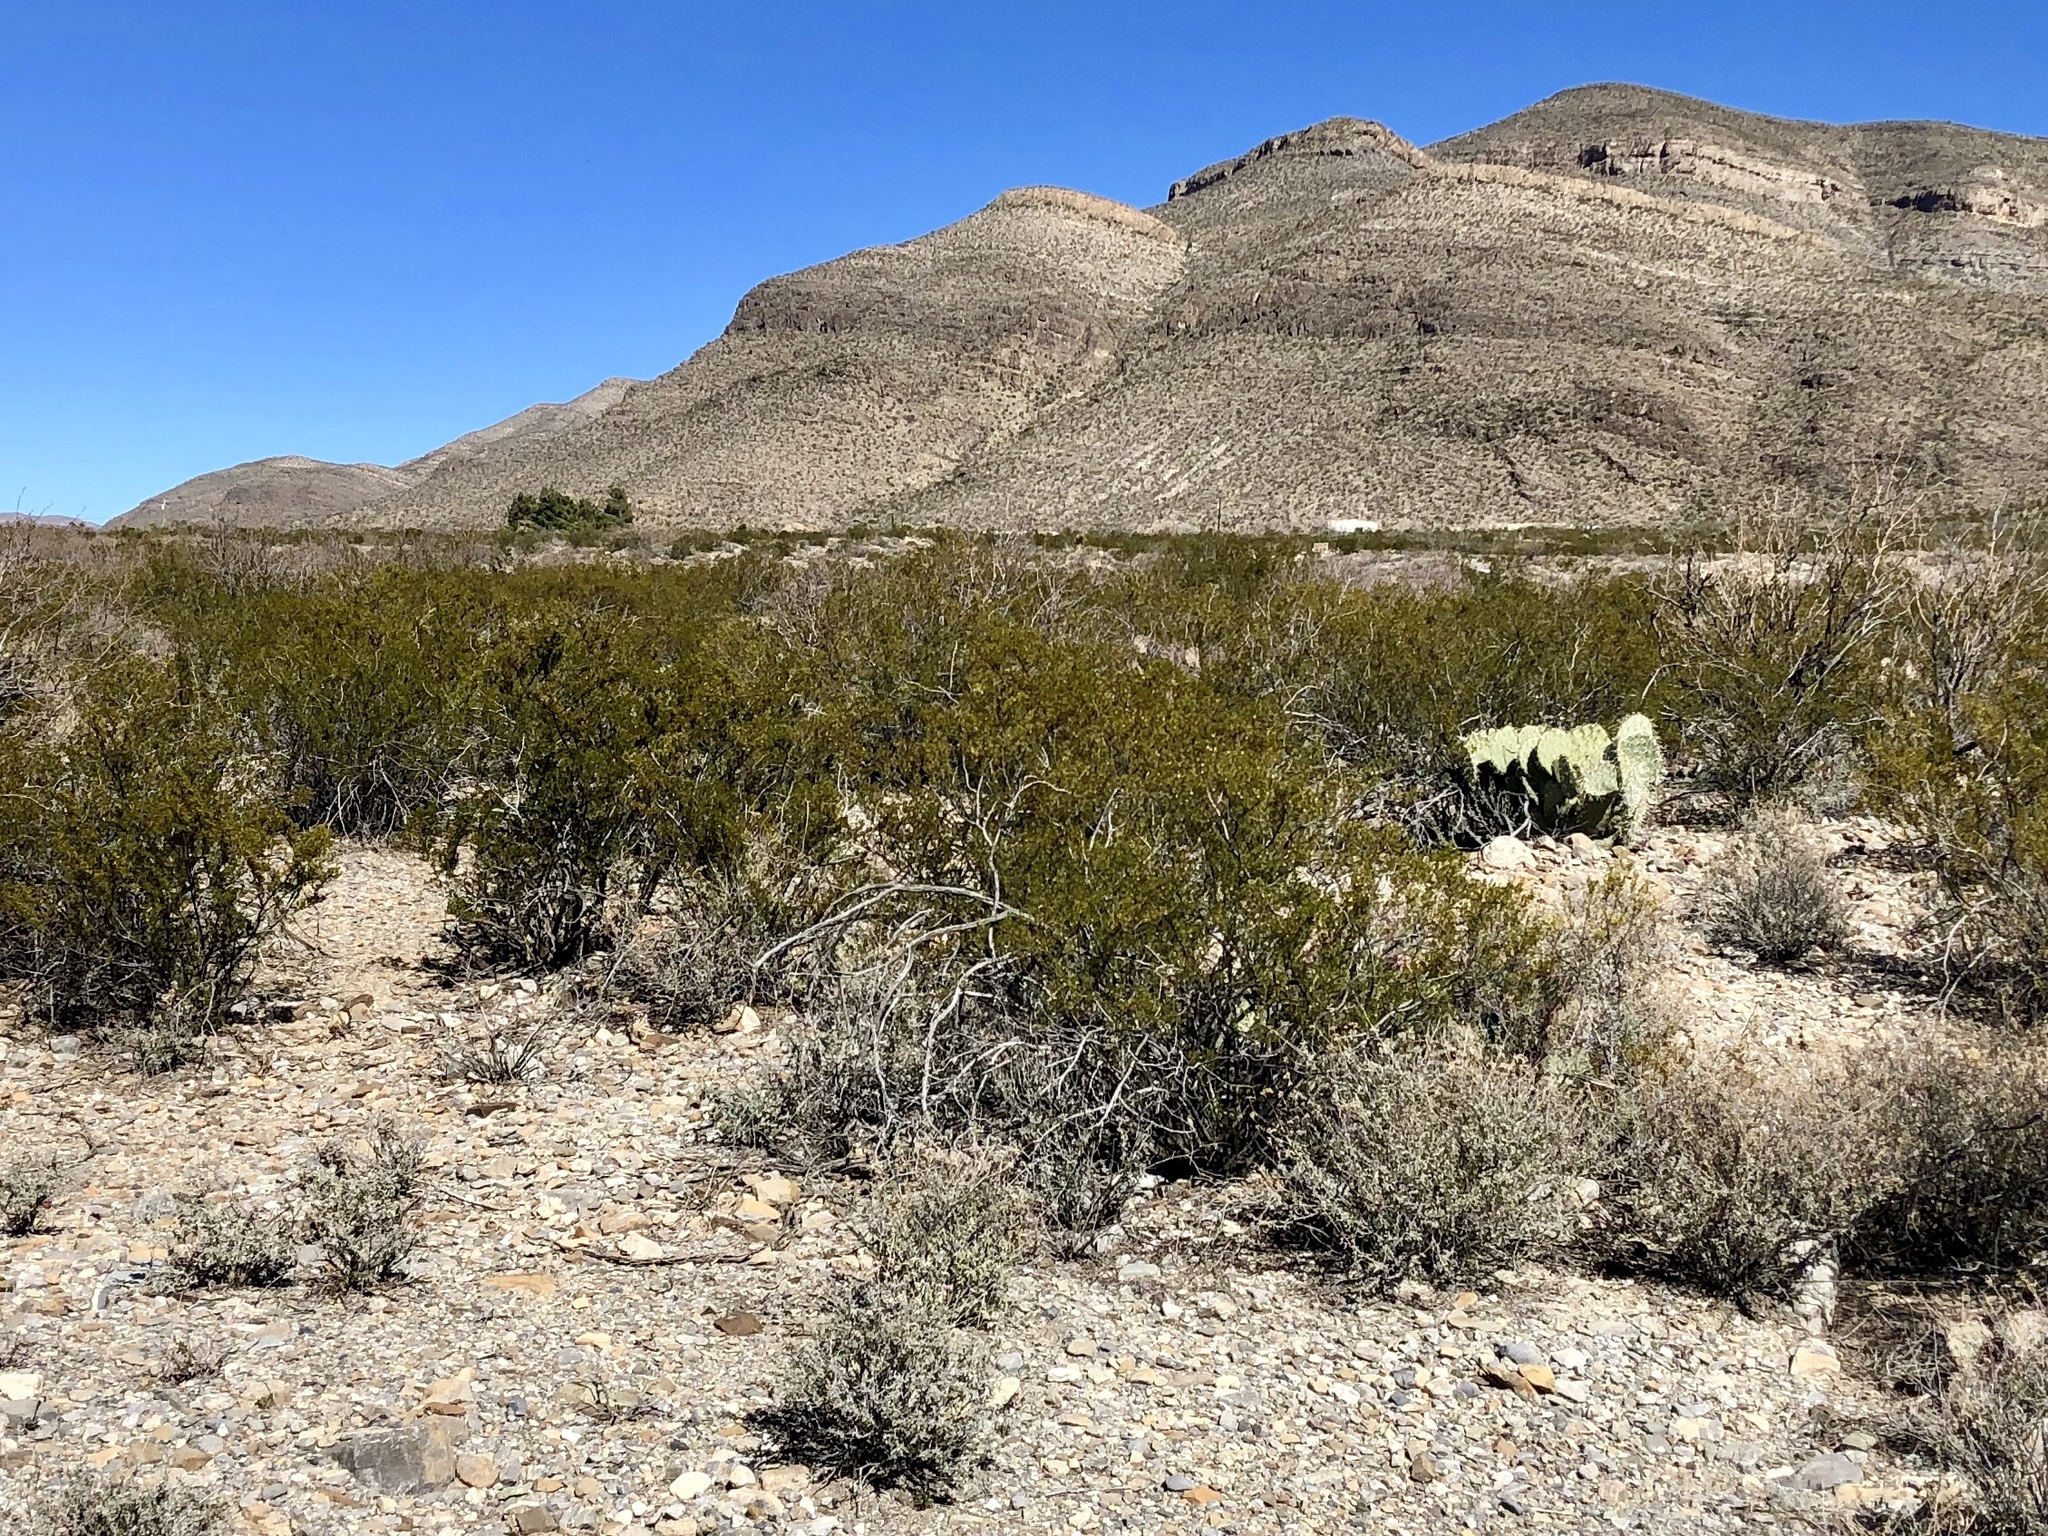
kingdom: Plantae
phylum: Tracheophyta
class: Magnoliopsida
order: Zygophyllales
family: Zygophyllaceae
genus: Larrea
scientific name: Larrea tridentata
